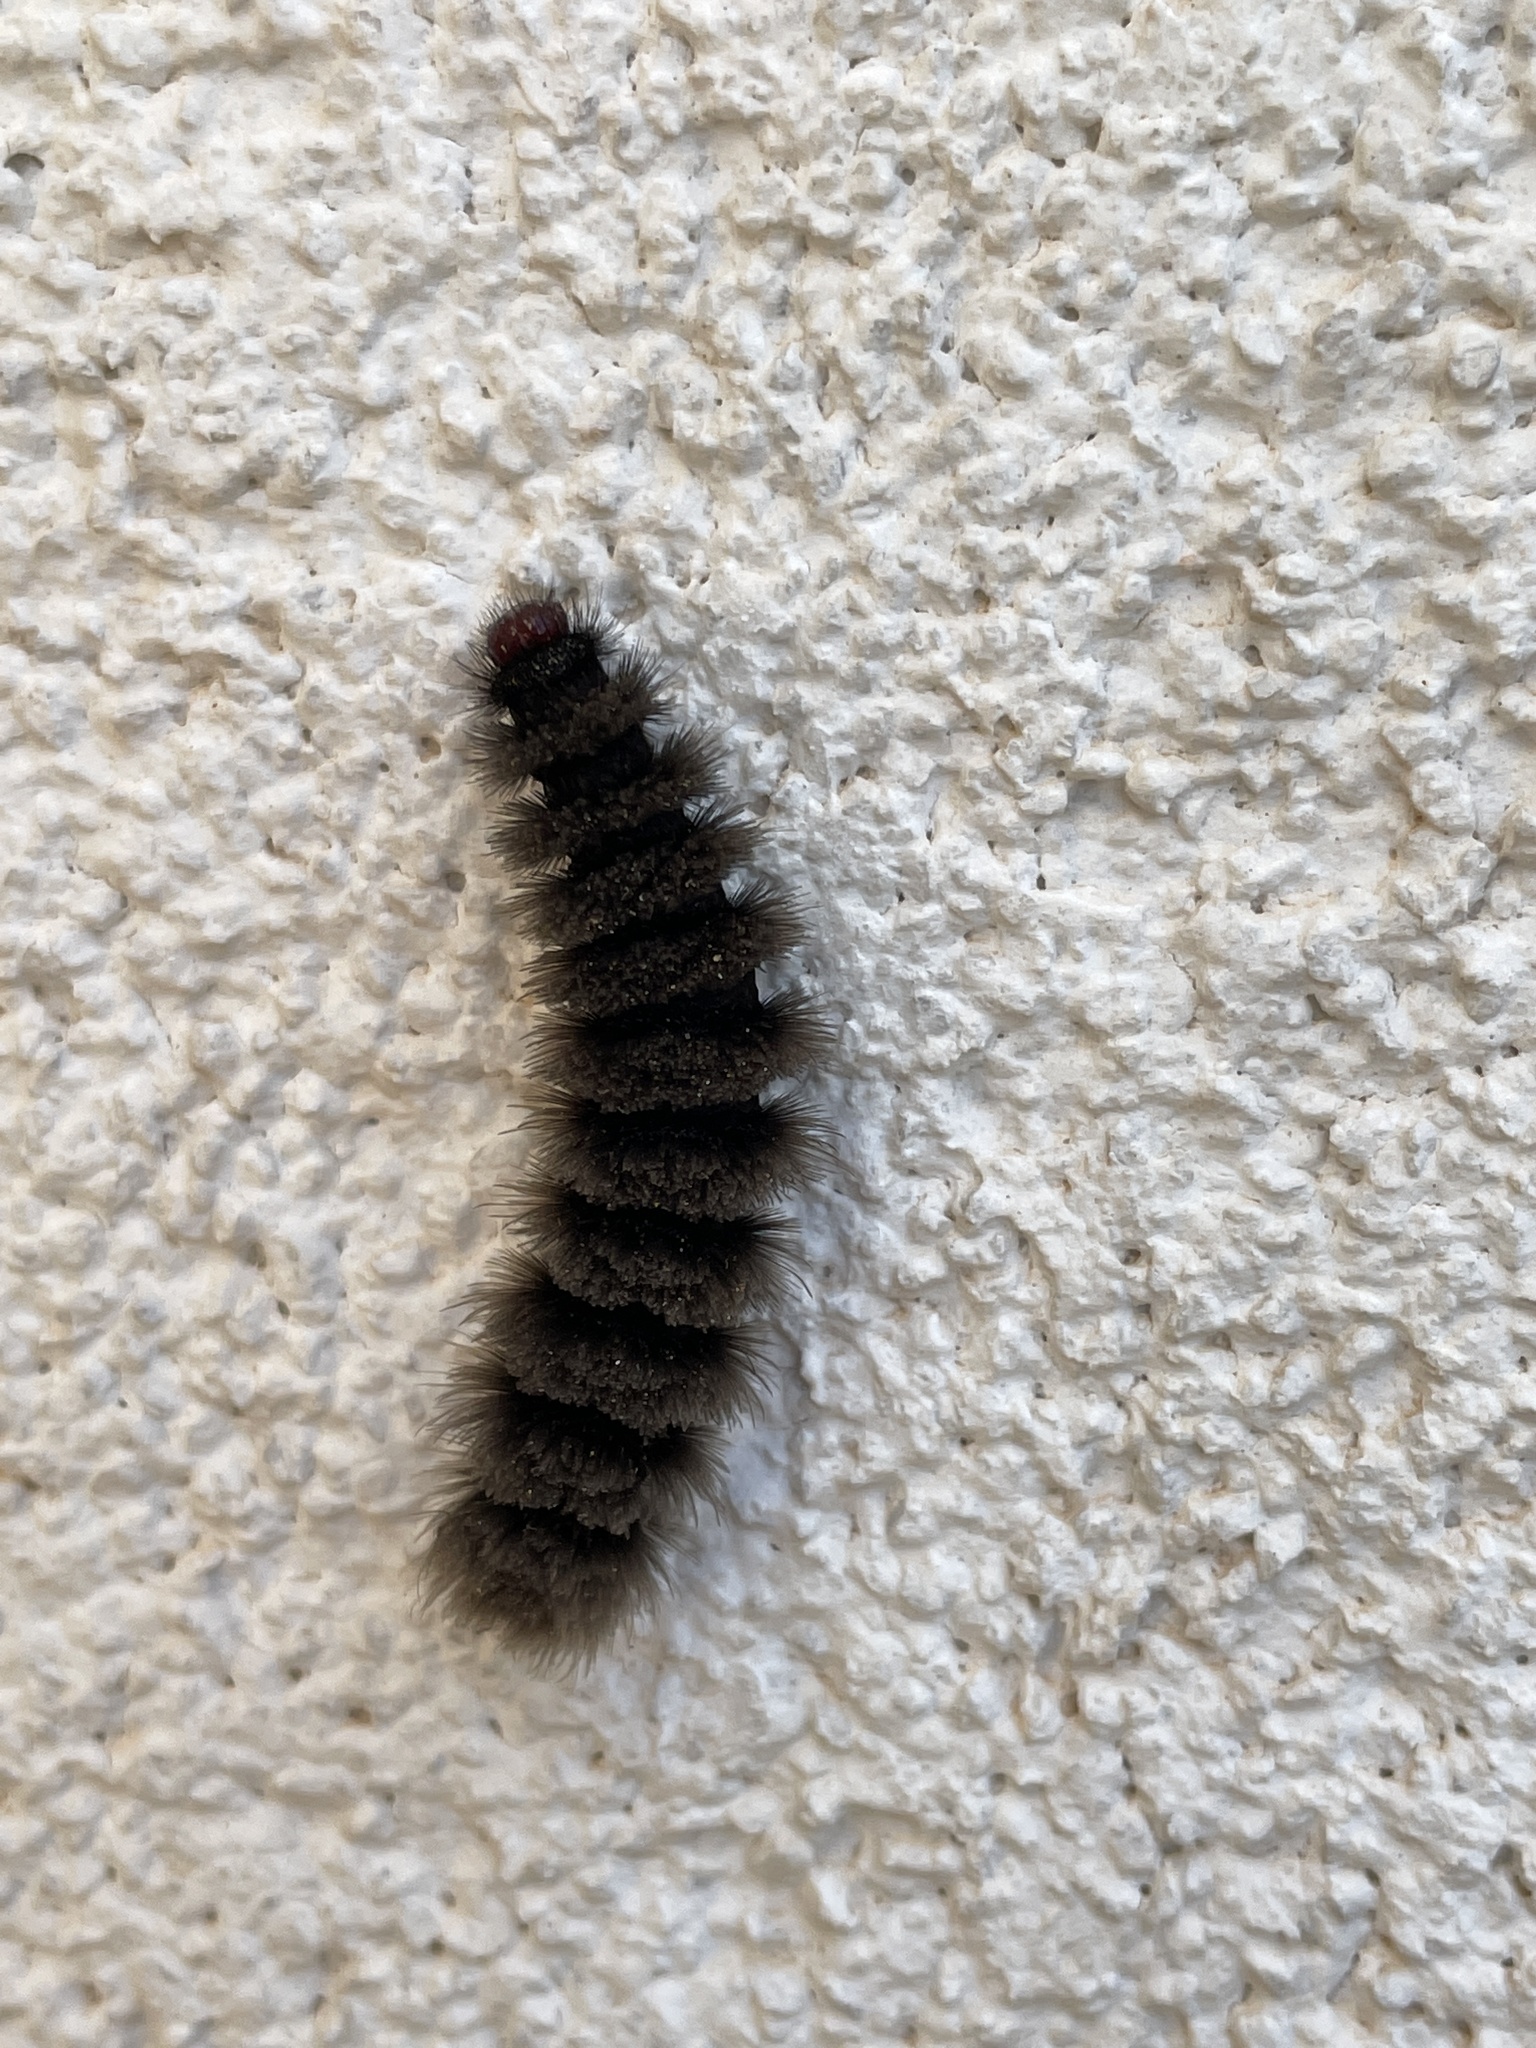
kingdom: Animalia
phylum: Arthropoda
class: Insecta
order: Lepidoptera
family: Erebidae
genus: Amata
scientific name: Amata phegea
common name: Nine-spotted
